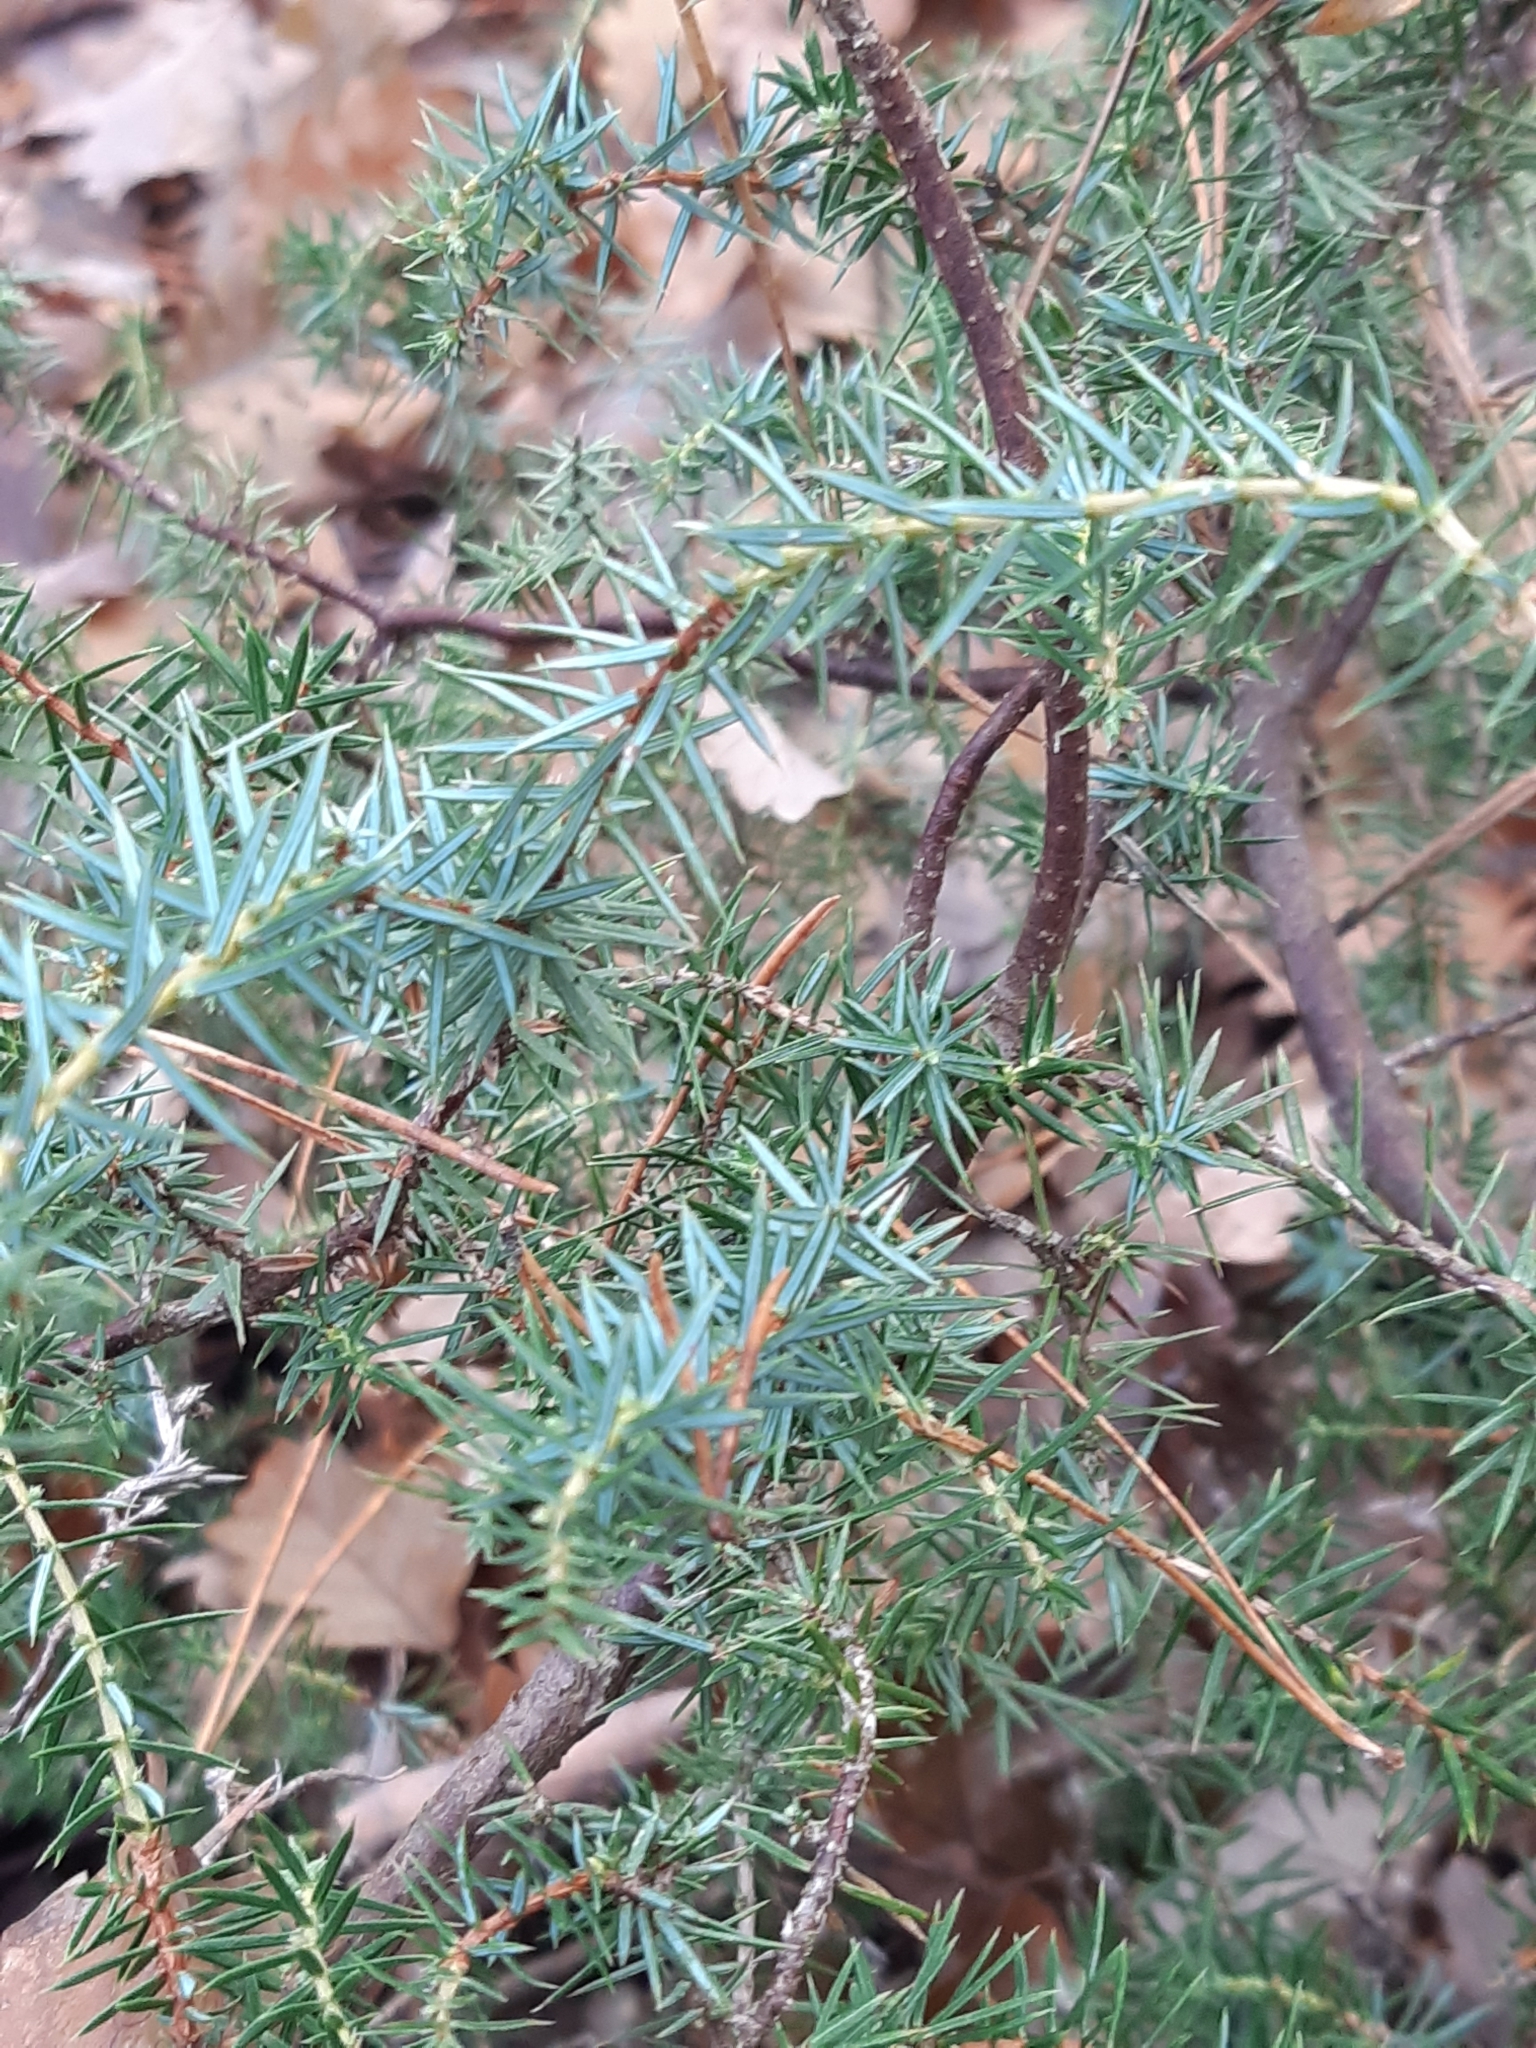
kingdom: Plantae
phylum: Tracheophyta
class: Pinopsida
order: Pinales
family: Cupressaceae
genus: Juniperus
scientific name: Juniperus communis
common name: Common juniper
